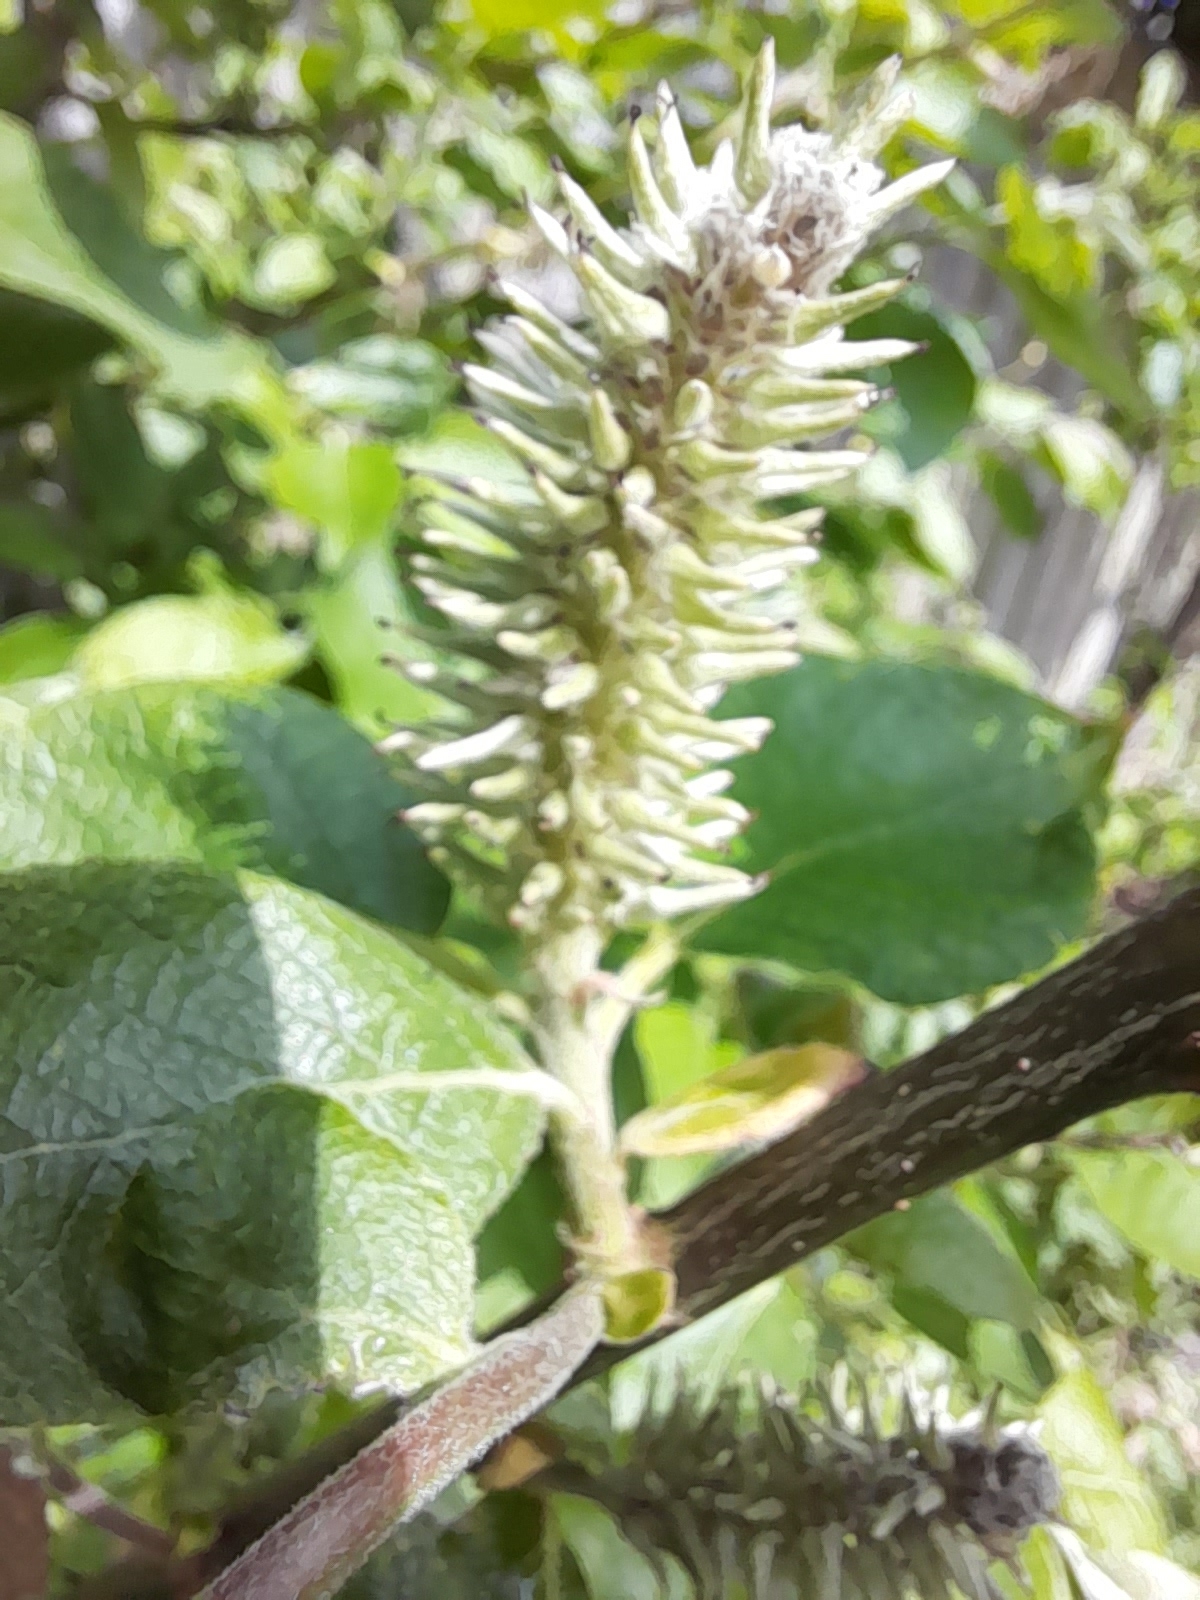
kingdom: Plantae
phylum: Tracheophyta
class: Magnoliopsida
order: Malpighiales
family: Salicaceae
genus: Salix
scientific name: Salix caprea
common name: Goat willow
